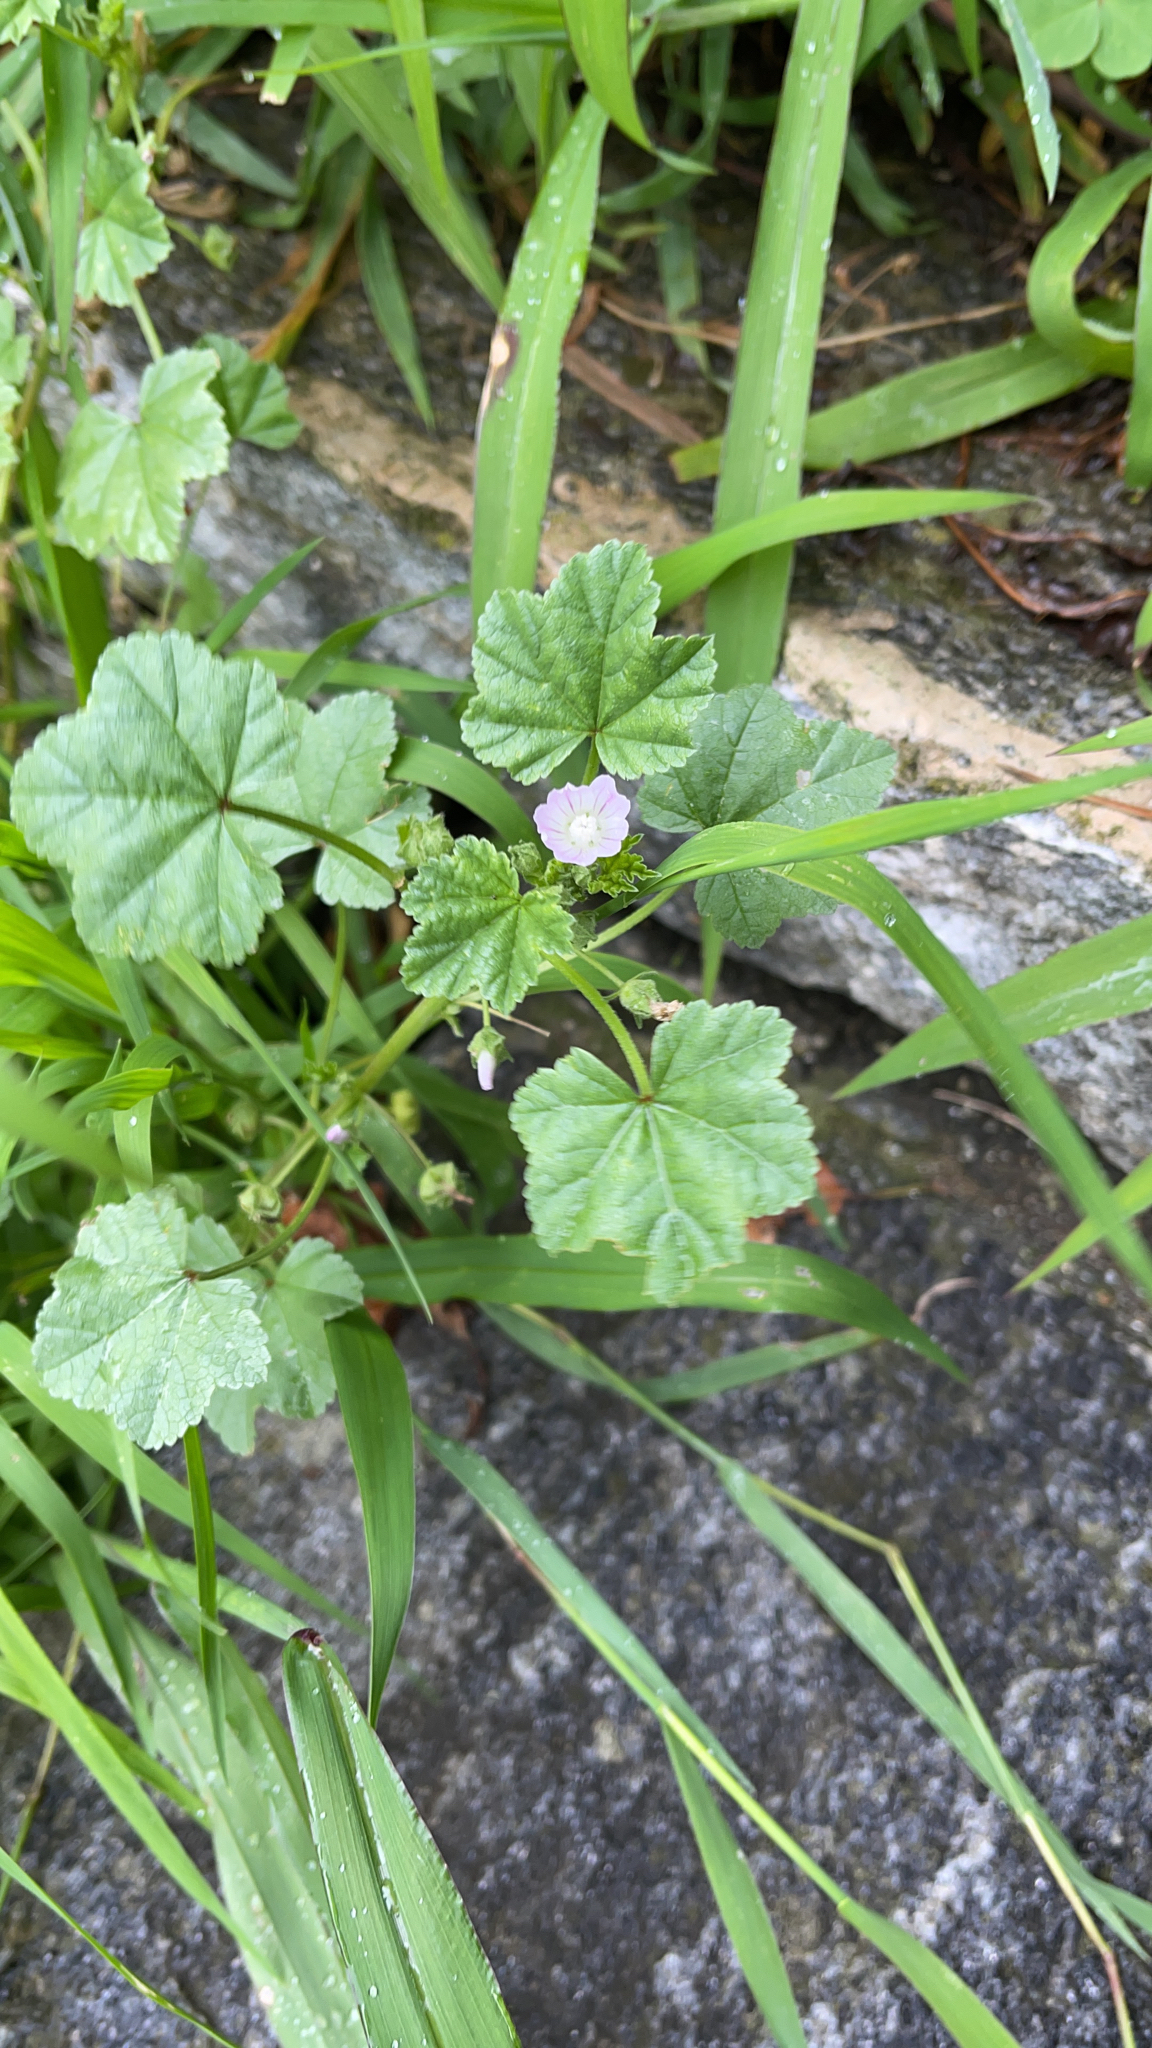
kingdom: Plantae
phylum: Tracheophyta
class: Magnoliopsida
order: Malvales
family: Malvaceae
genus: Malva
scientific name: Malva neglecta
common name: Common mallow
